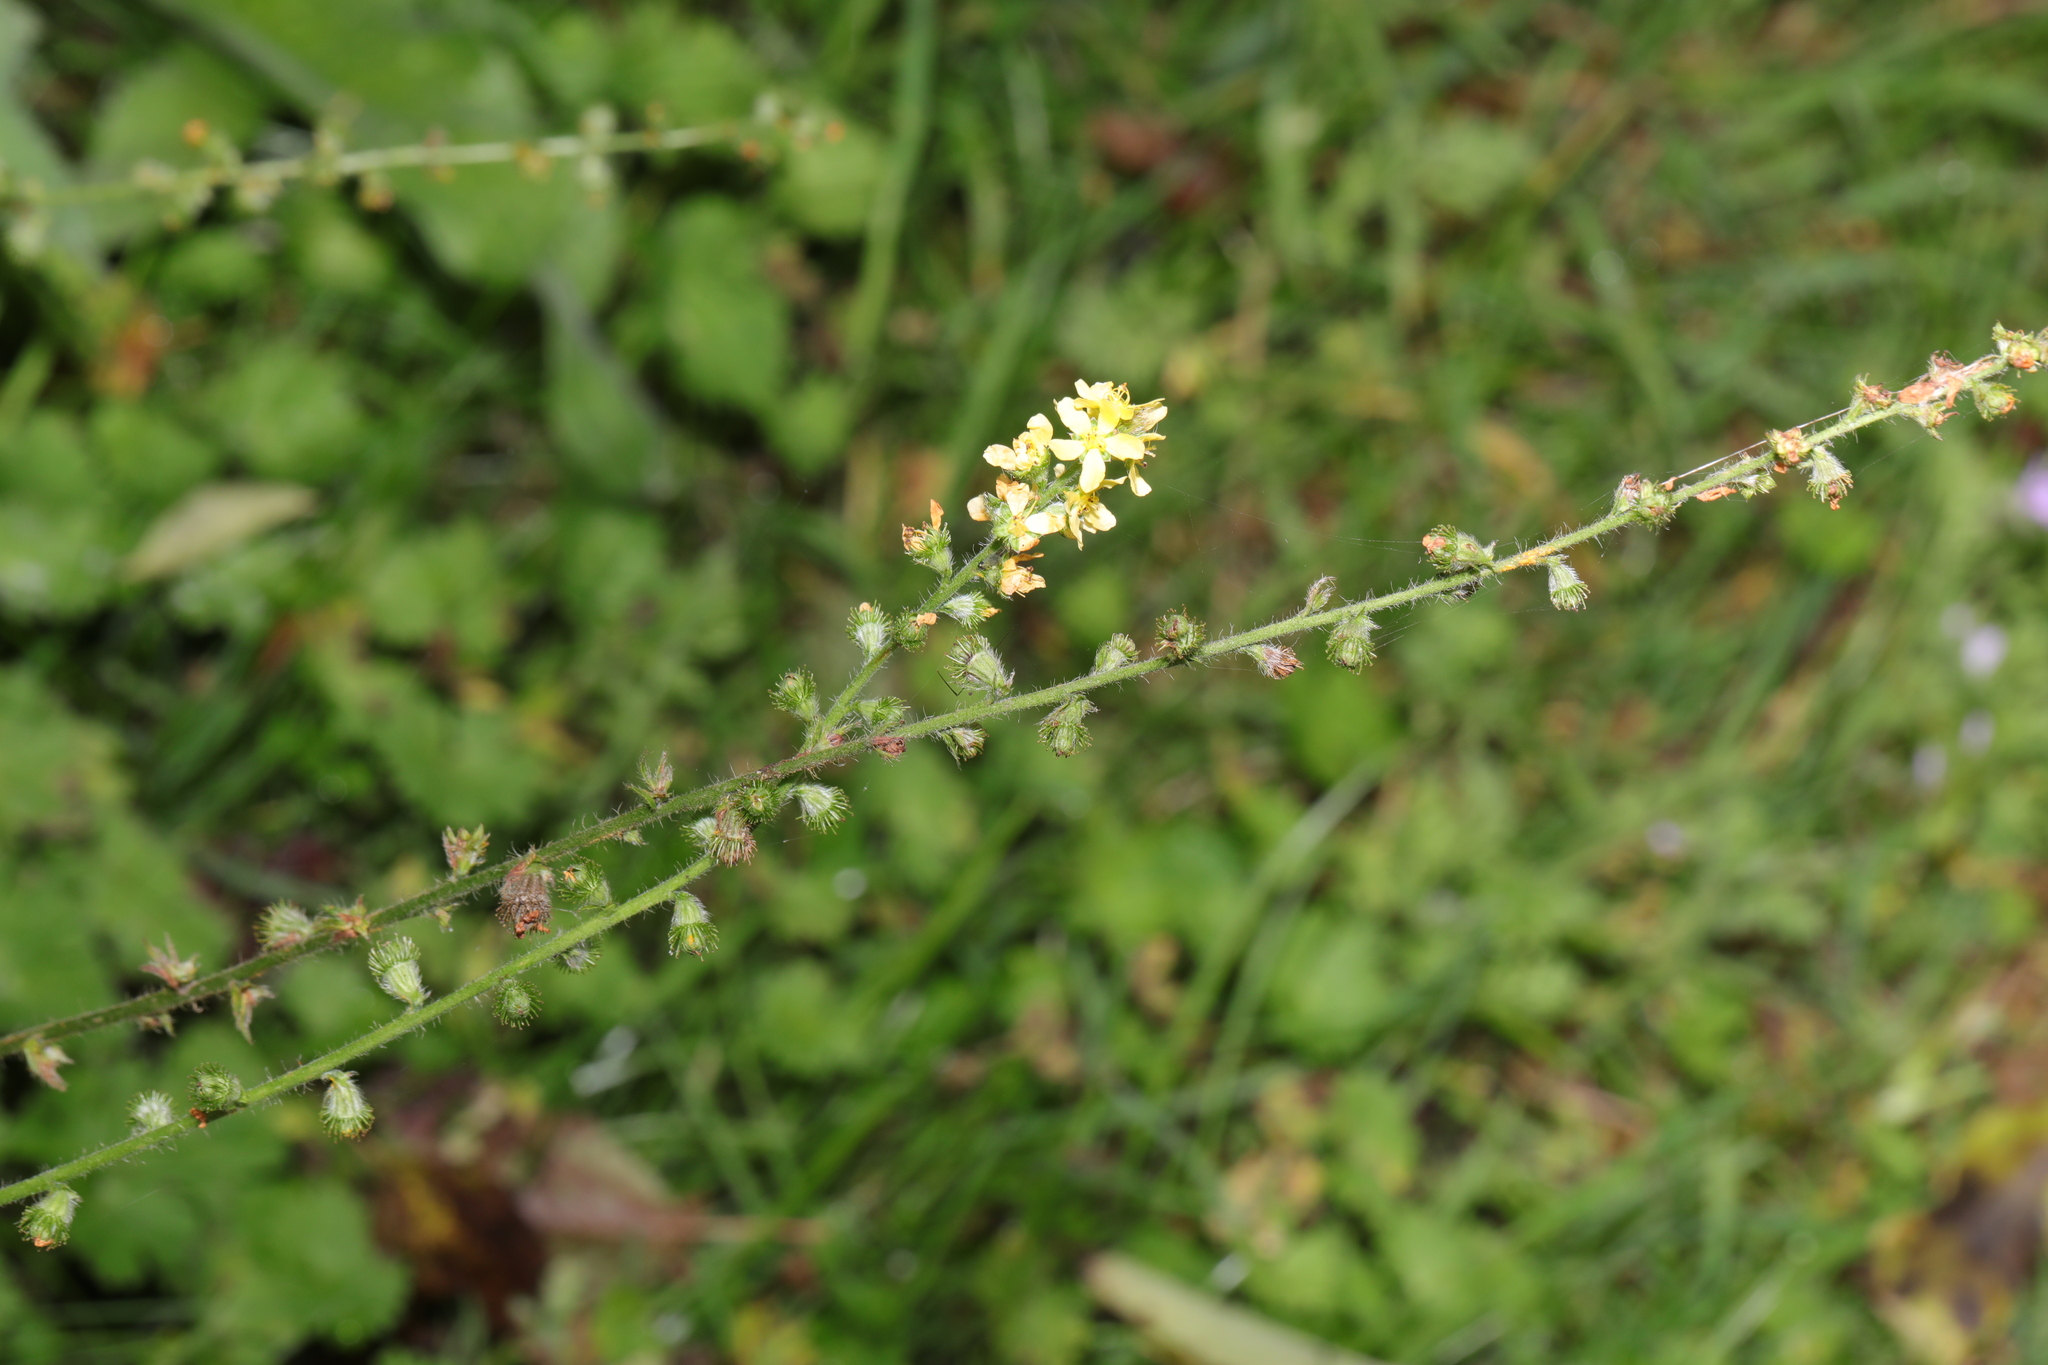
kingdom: Plantae
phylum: Tracheophyta
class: Magnoliopsida
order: Rosales
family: Rosaceae
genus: Agrimonia
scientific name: Agrimonia eupatoria
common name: Agrimony
